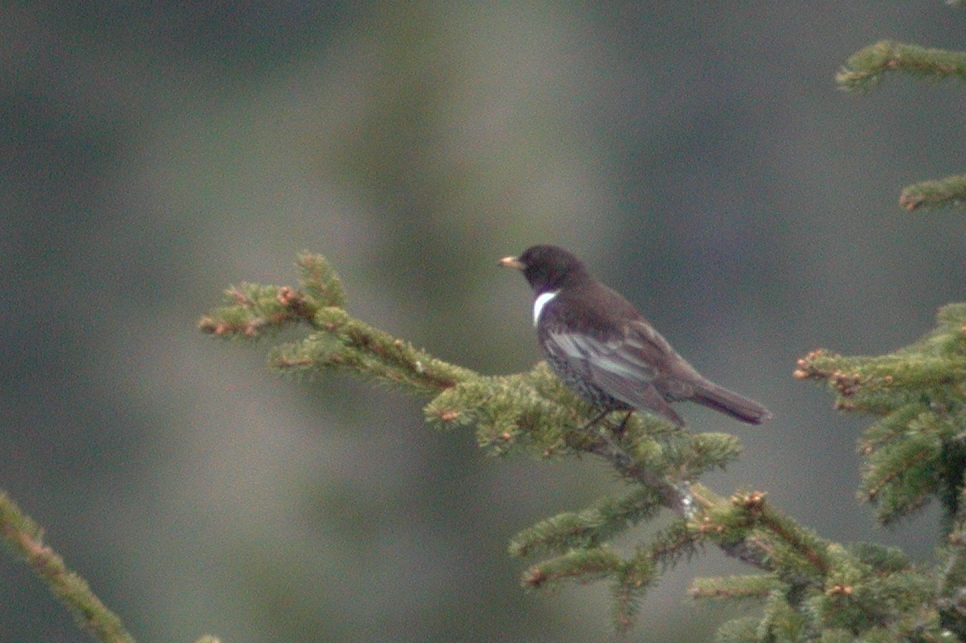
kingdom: Animalia
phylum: Chordata
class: Aves
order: Passeriformes
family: Turdidae
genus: Turdus
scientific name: Turdus torquatus
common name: Ring ouzel
